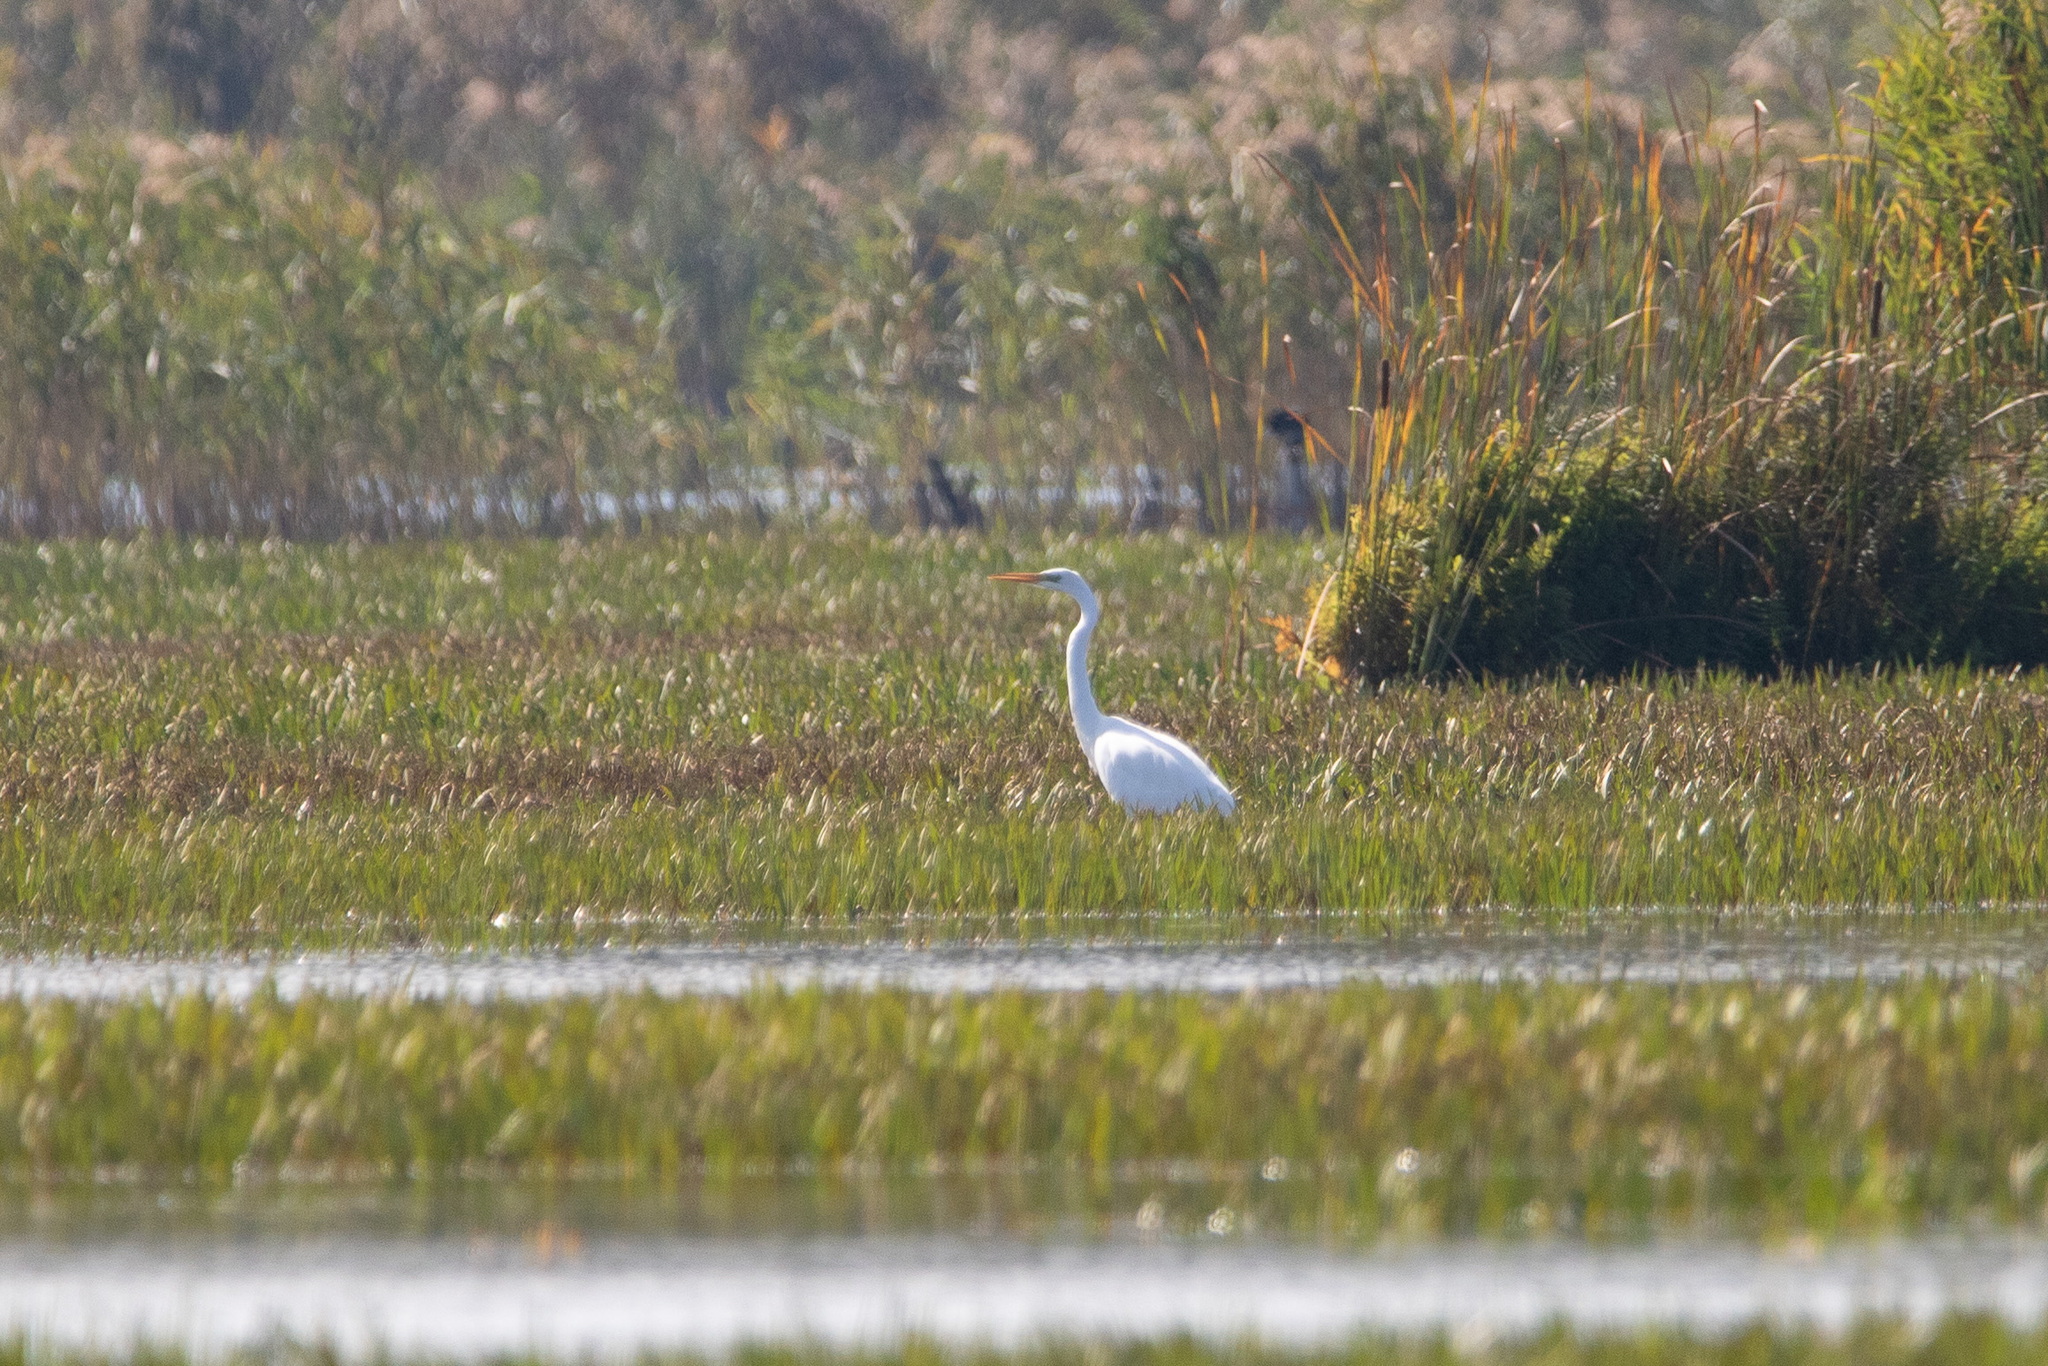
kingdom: Animalia
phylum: Chordata
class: Aves
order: Pelecaniformes
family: Ardeidae
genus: Ardea
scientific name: Ardea alba
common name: Great egret
